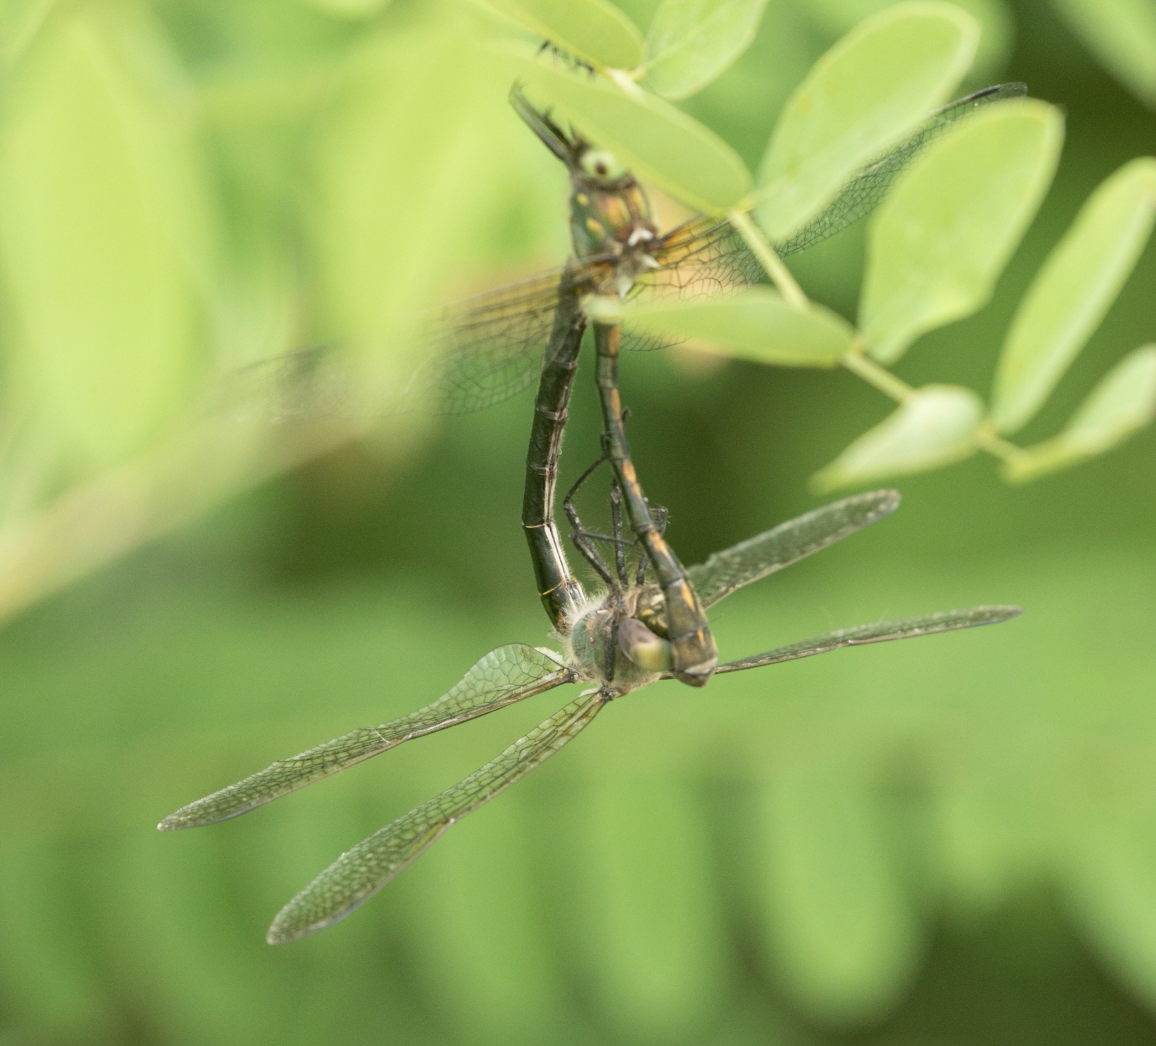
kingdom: Animalia
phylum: Arthropoda
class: Insecta
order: Odonata
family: Corduliidae
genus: Oxygastra
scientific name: Oxygastra curtisii
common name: Orange-spotted emerald
